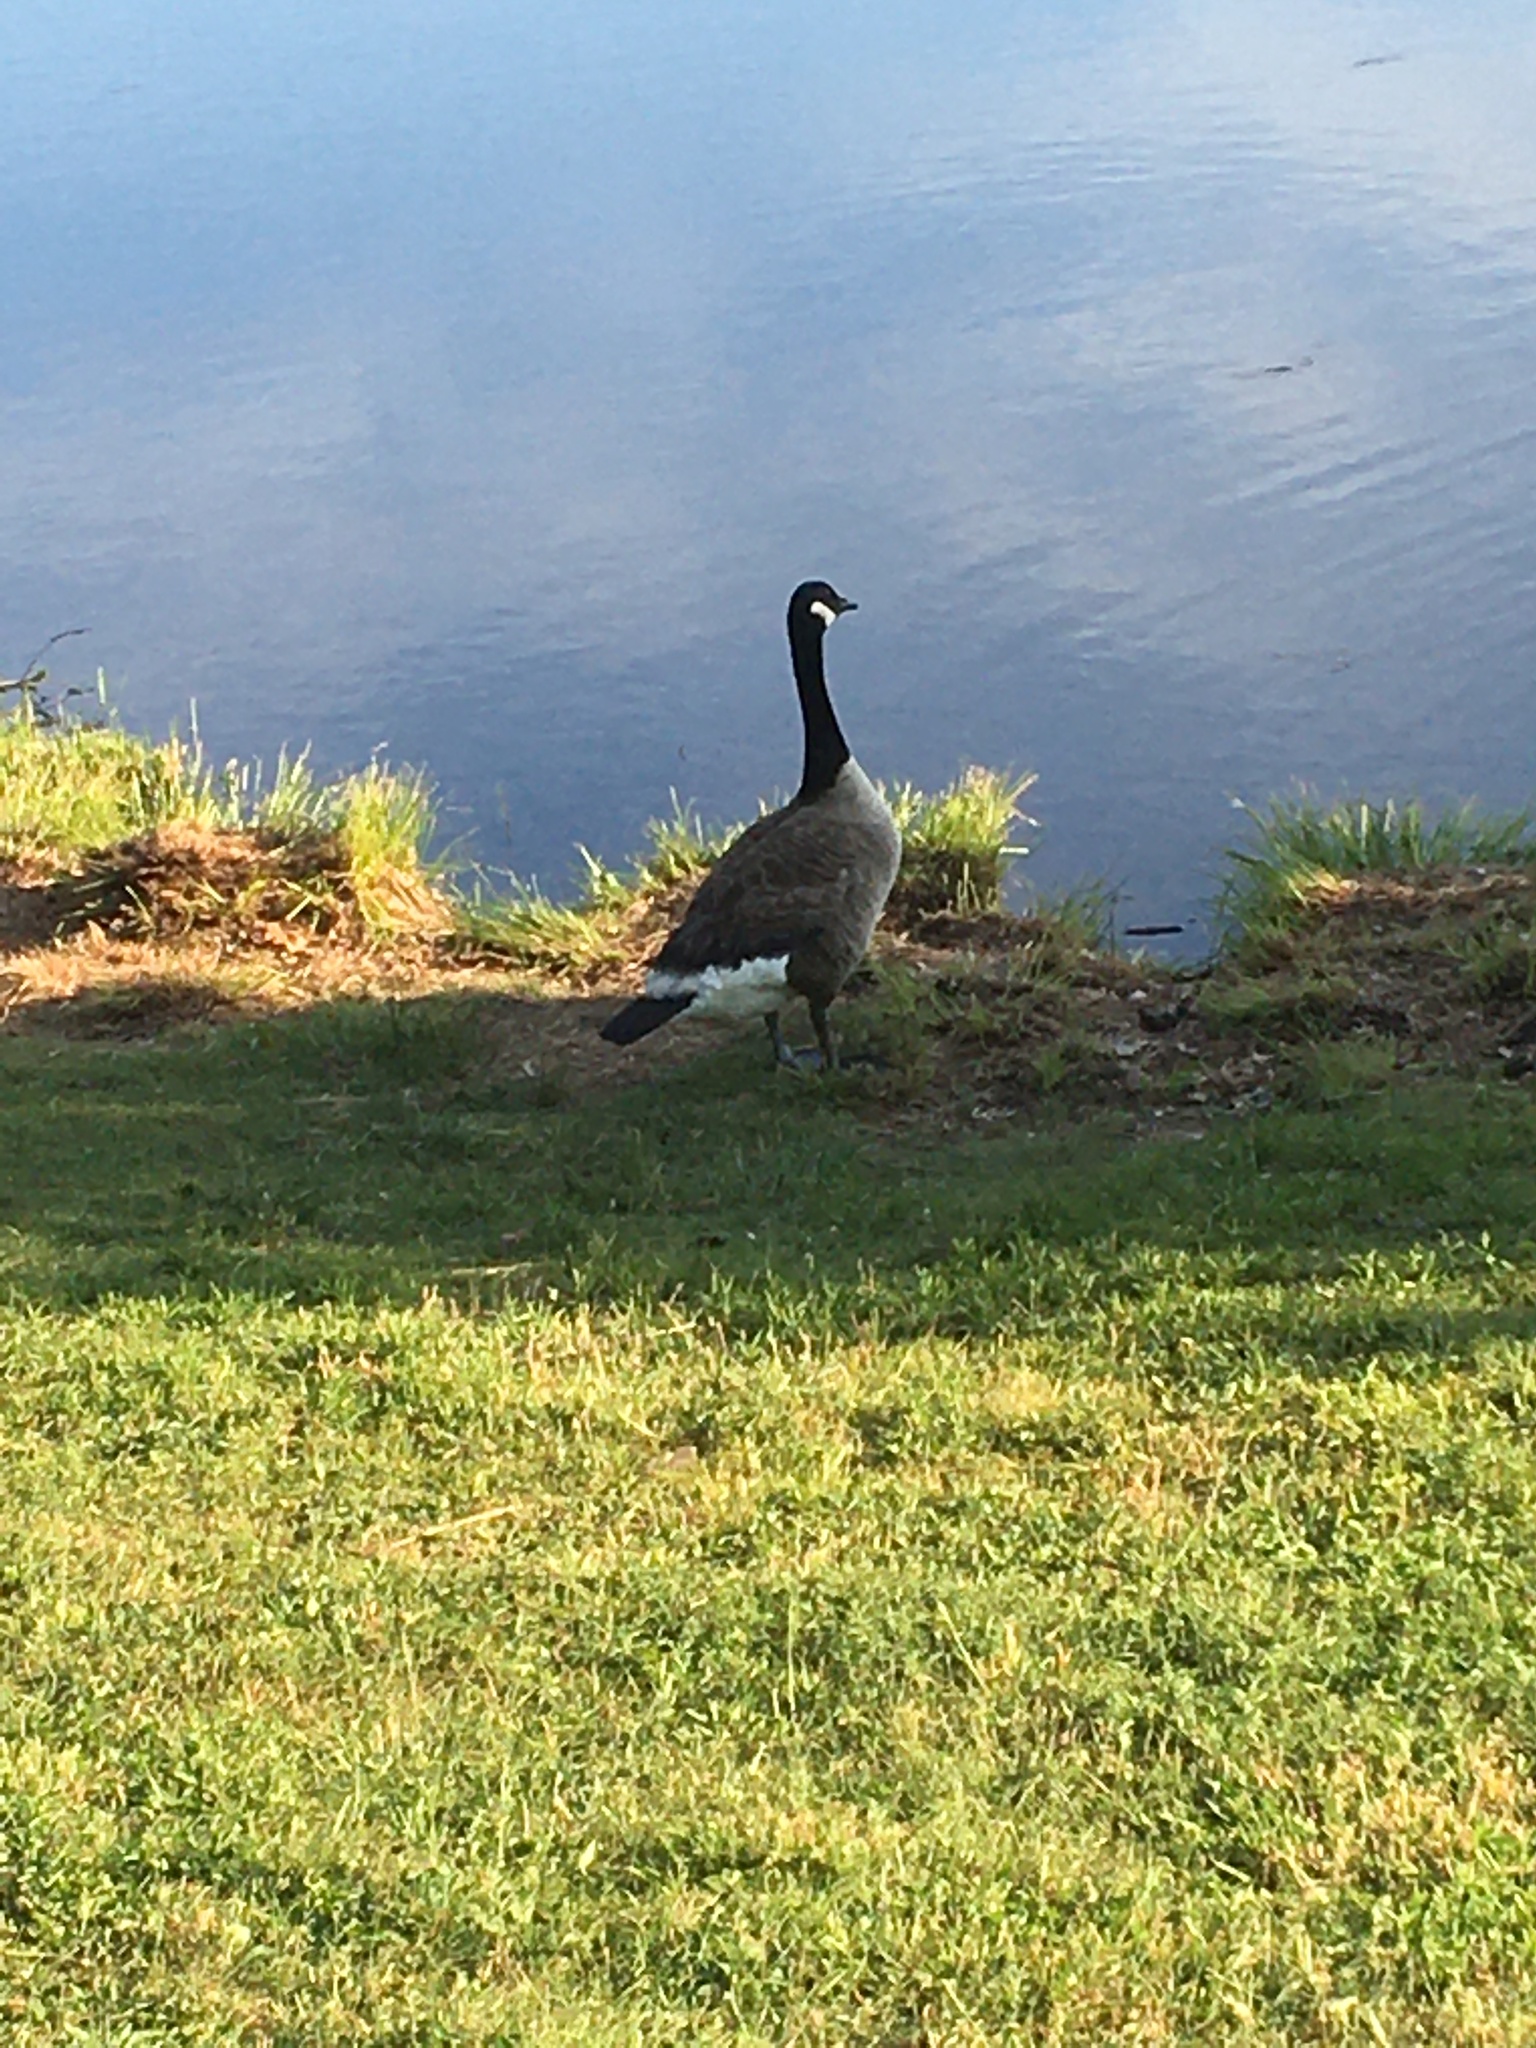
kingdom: Animalia
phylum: Chordata
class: Aves
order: Anseriformes
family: Anatidae
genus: Branta
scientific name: Branta canadensis
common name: Canada goose
